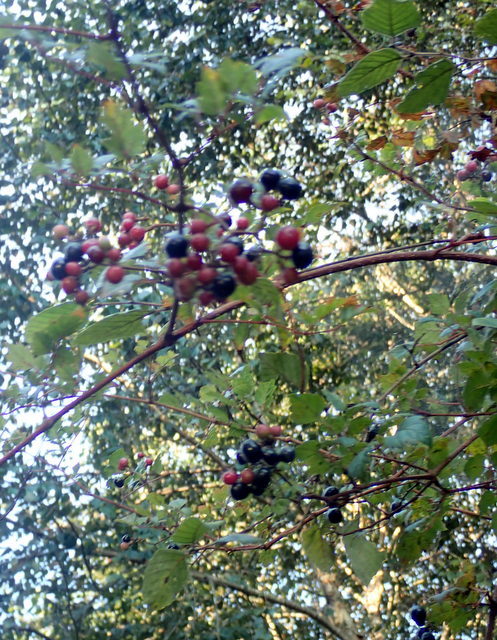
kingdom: Plantae
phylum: Tracheophyta
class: Magnoliopsida
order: Vitales
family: Vitaceae
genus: Nekemias
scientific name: Nekemias arborea
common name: Peppervine
